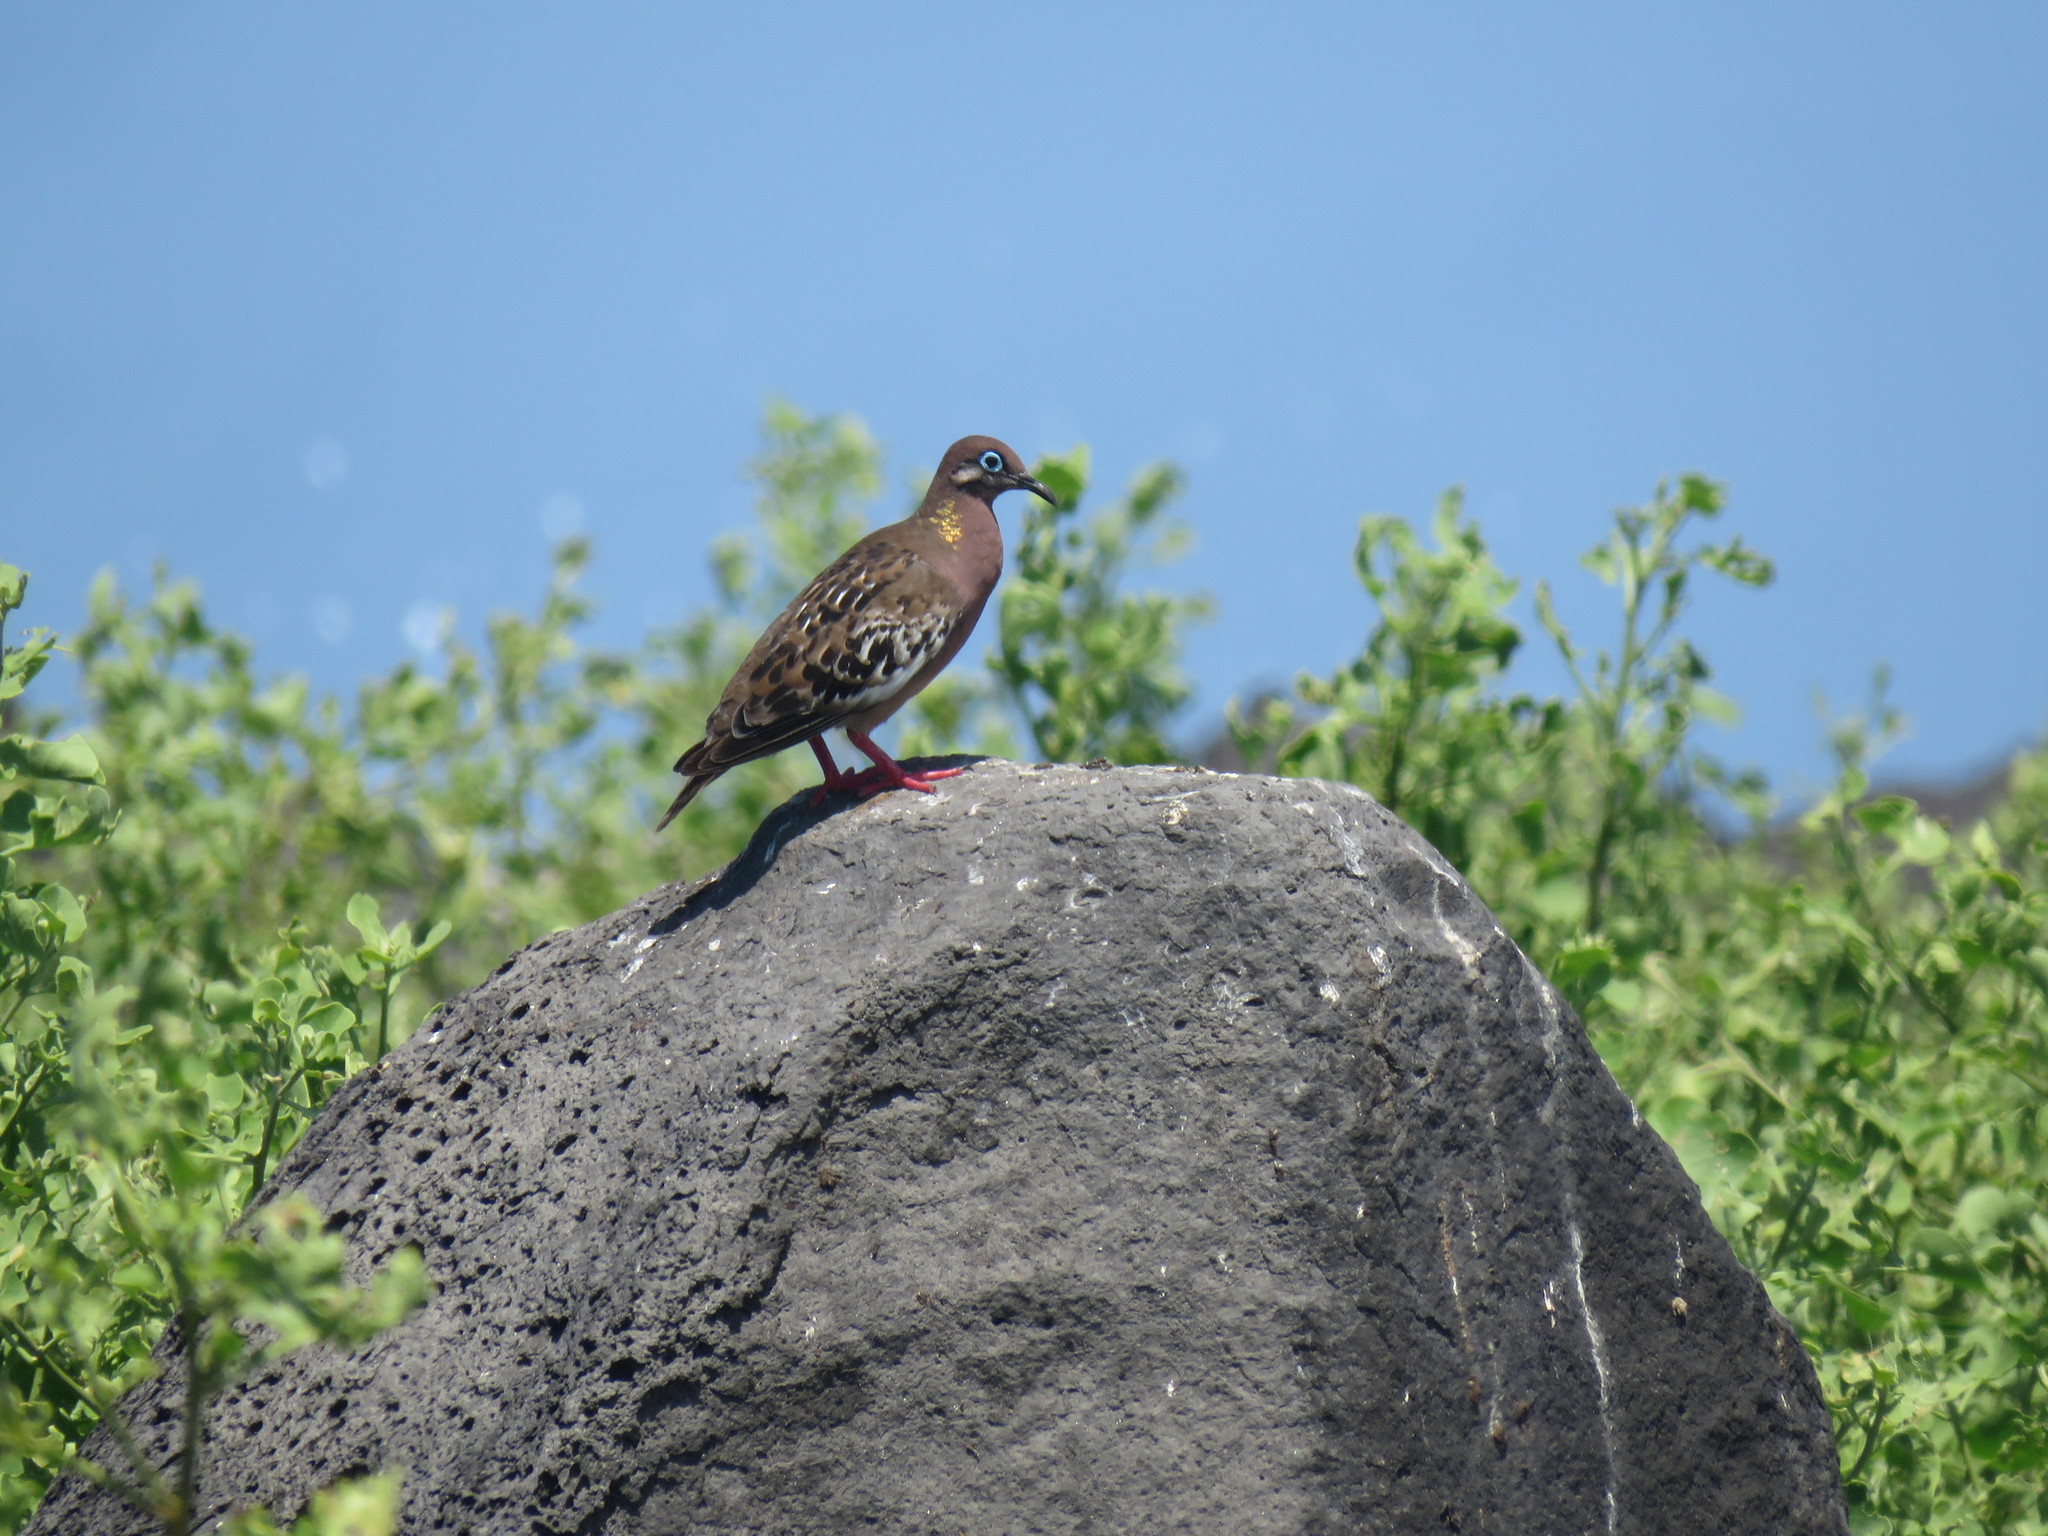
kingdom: Animalia
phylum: Chordata
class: Aves
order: Columbiformes
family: Columbidae
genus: Zenaida
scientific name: Zenaida galapagoensis
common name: Galapagos dove
